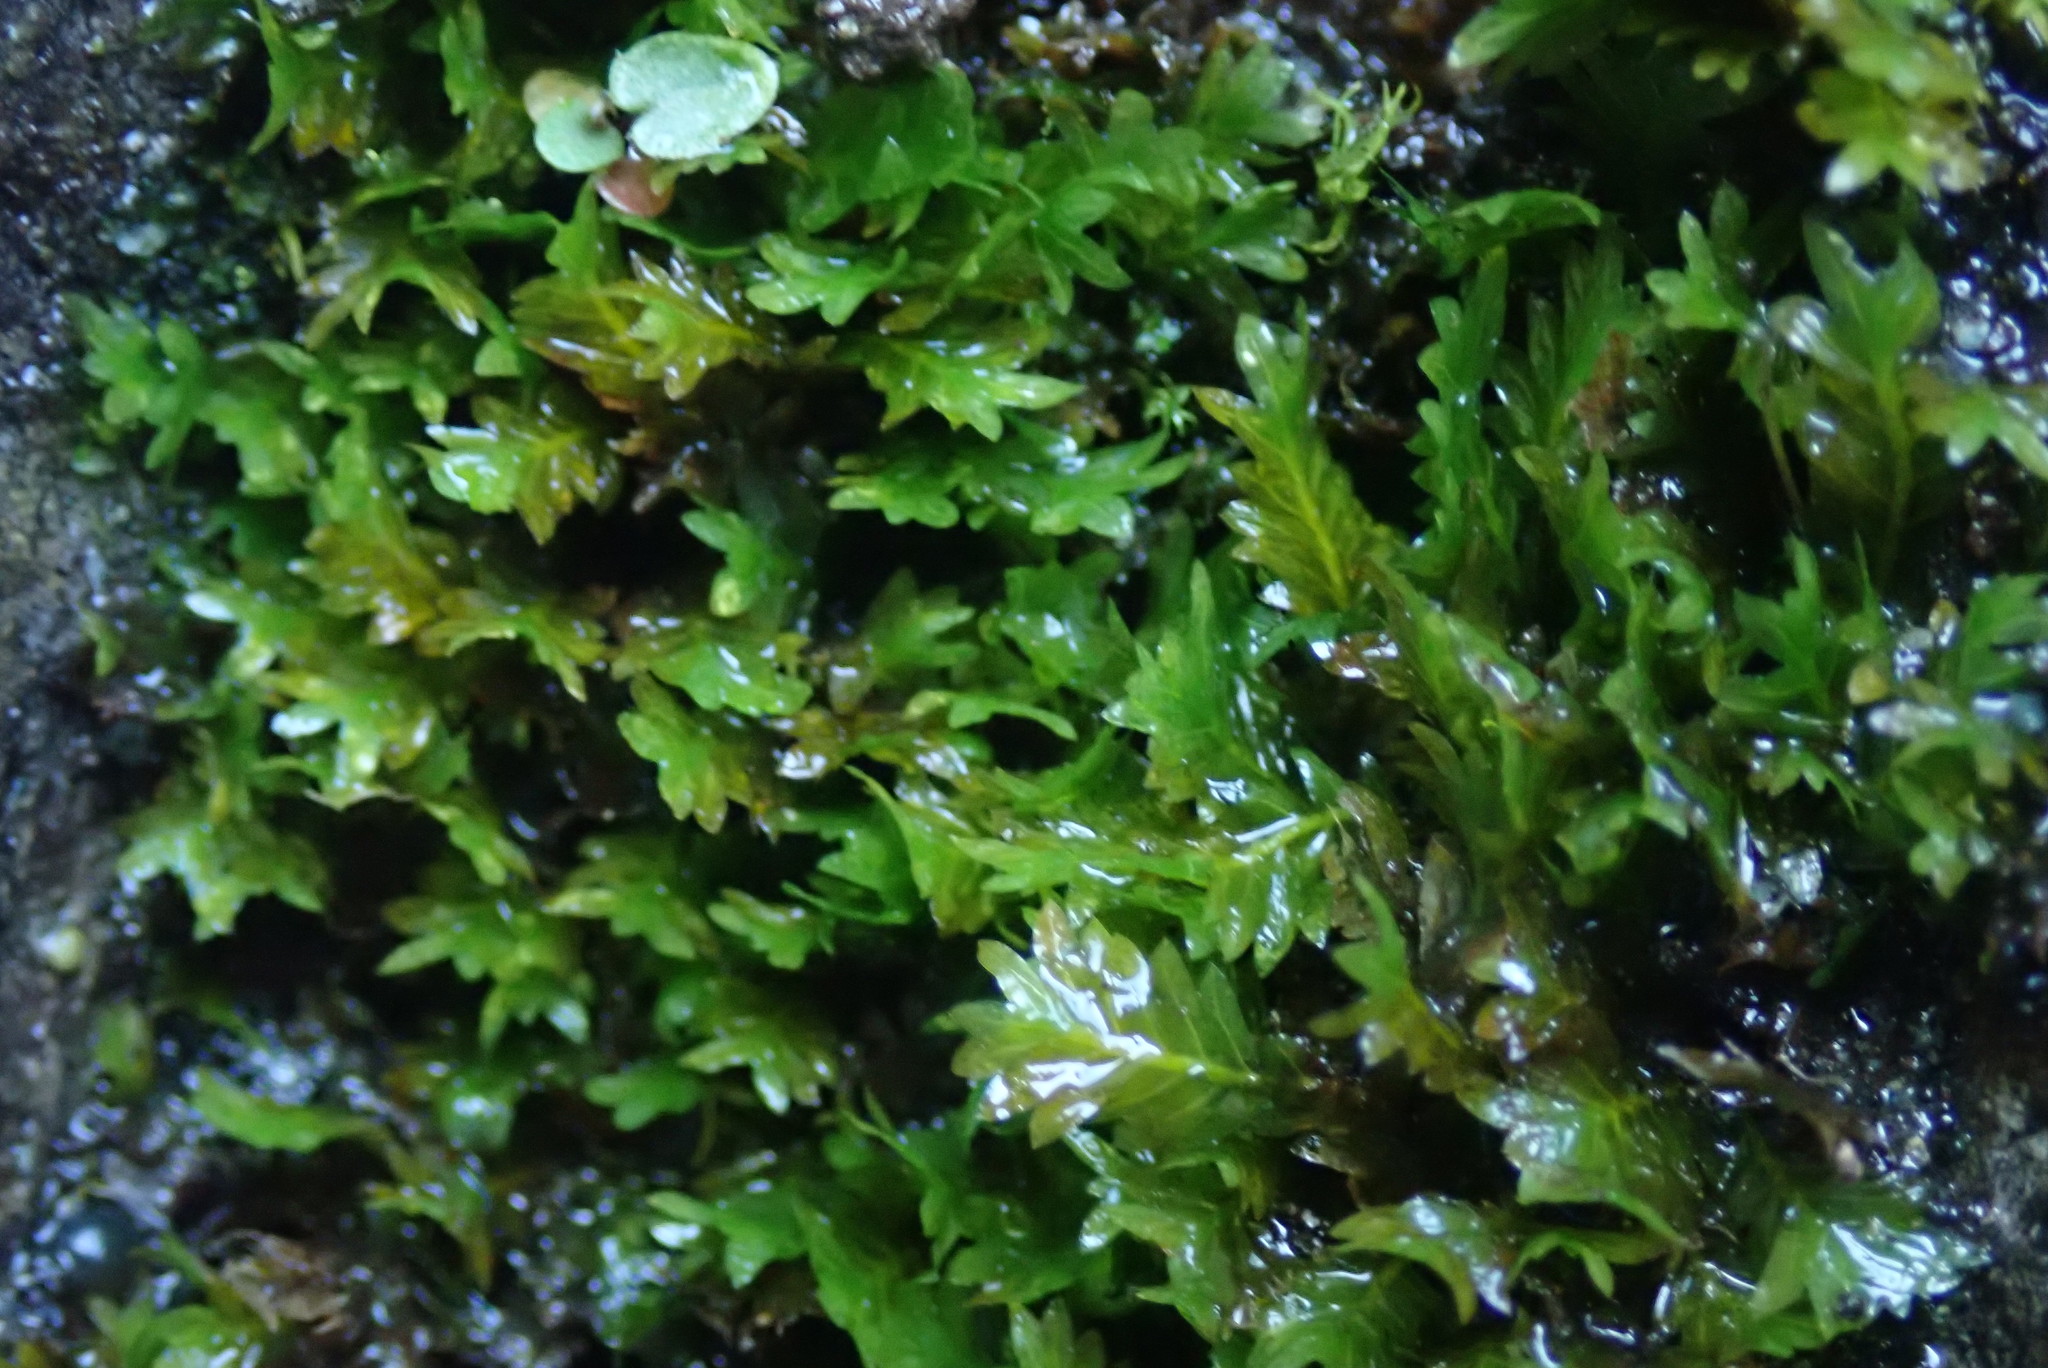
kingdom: Plantae
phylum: Bryophyta
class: Bryopsida
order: Dicranales
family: Fissidentaceae
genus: Fissidens
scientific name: Fissidens adianthoides
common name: Maidenhair pocket moss
